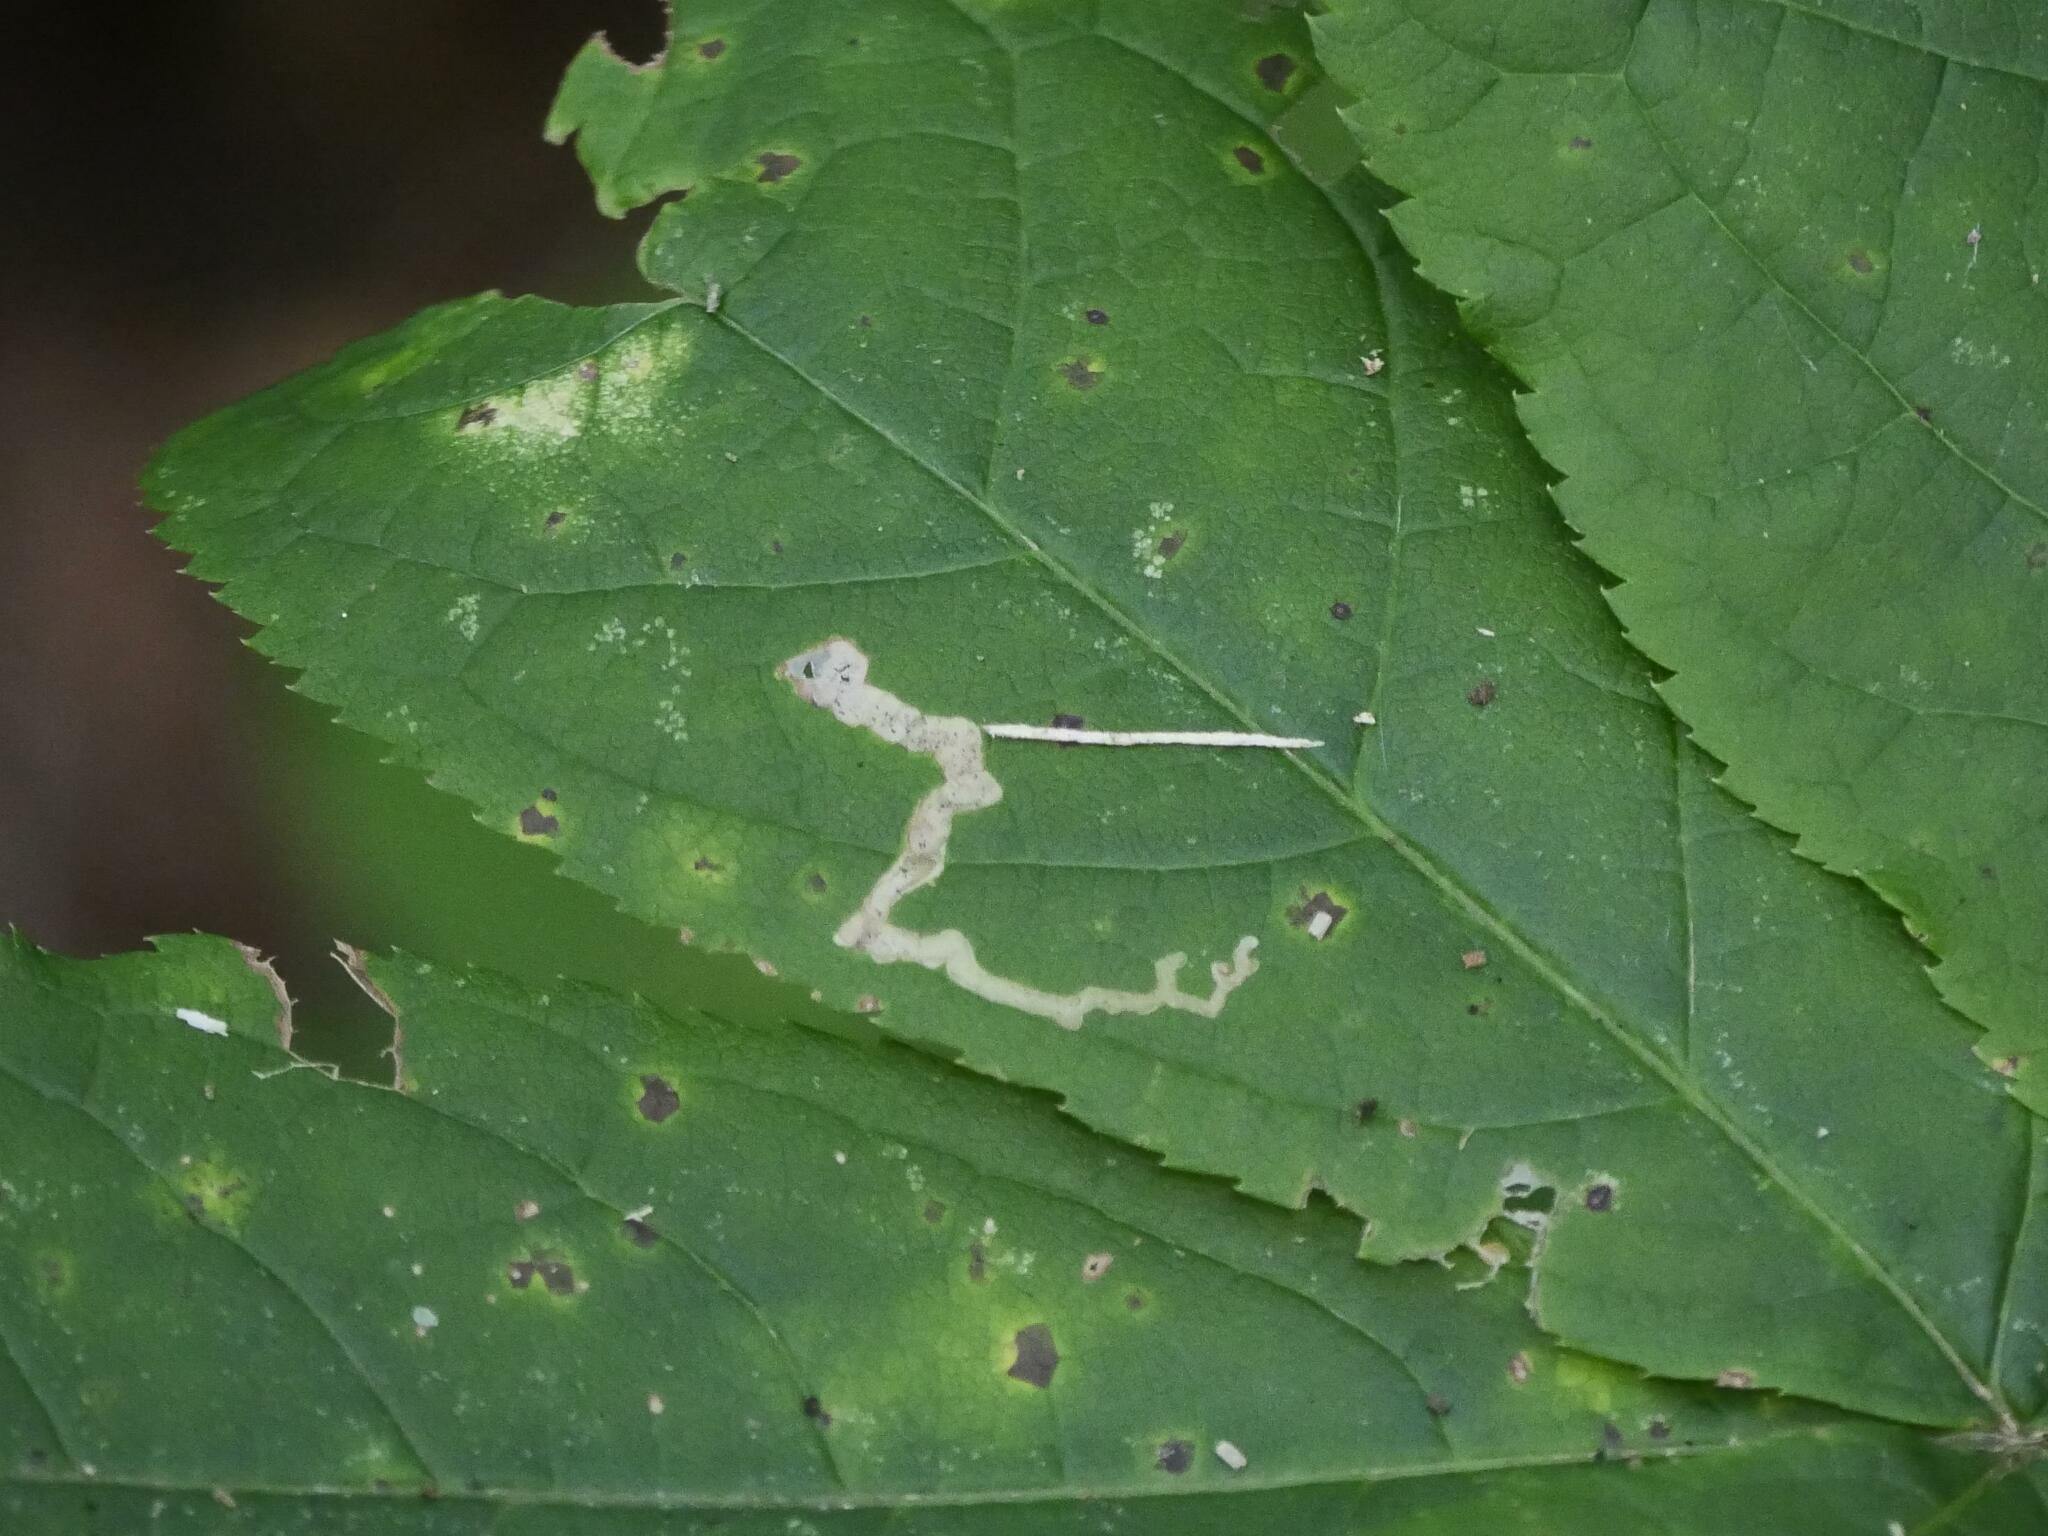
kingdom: Animalia
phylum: Arthropoda
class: Insecta
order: Diptera
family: Agromyzidae
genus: Phytomyza
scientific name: Phytomyza aralivora
